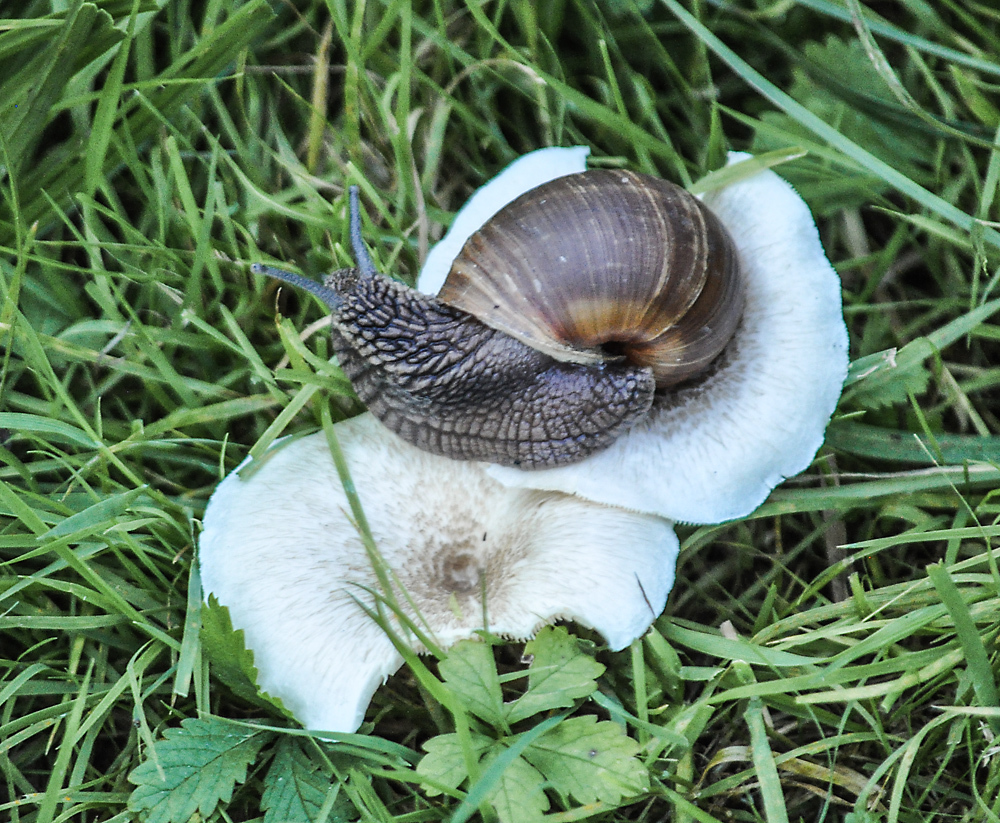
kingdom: Animalia
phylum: Mollusca
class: Gastropoda
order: Stylommatophora
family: Helicidae
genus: Helix
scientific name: Helix pomatia
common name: Roman snail
